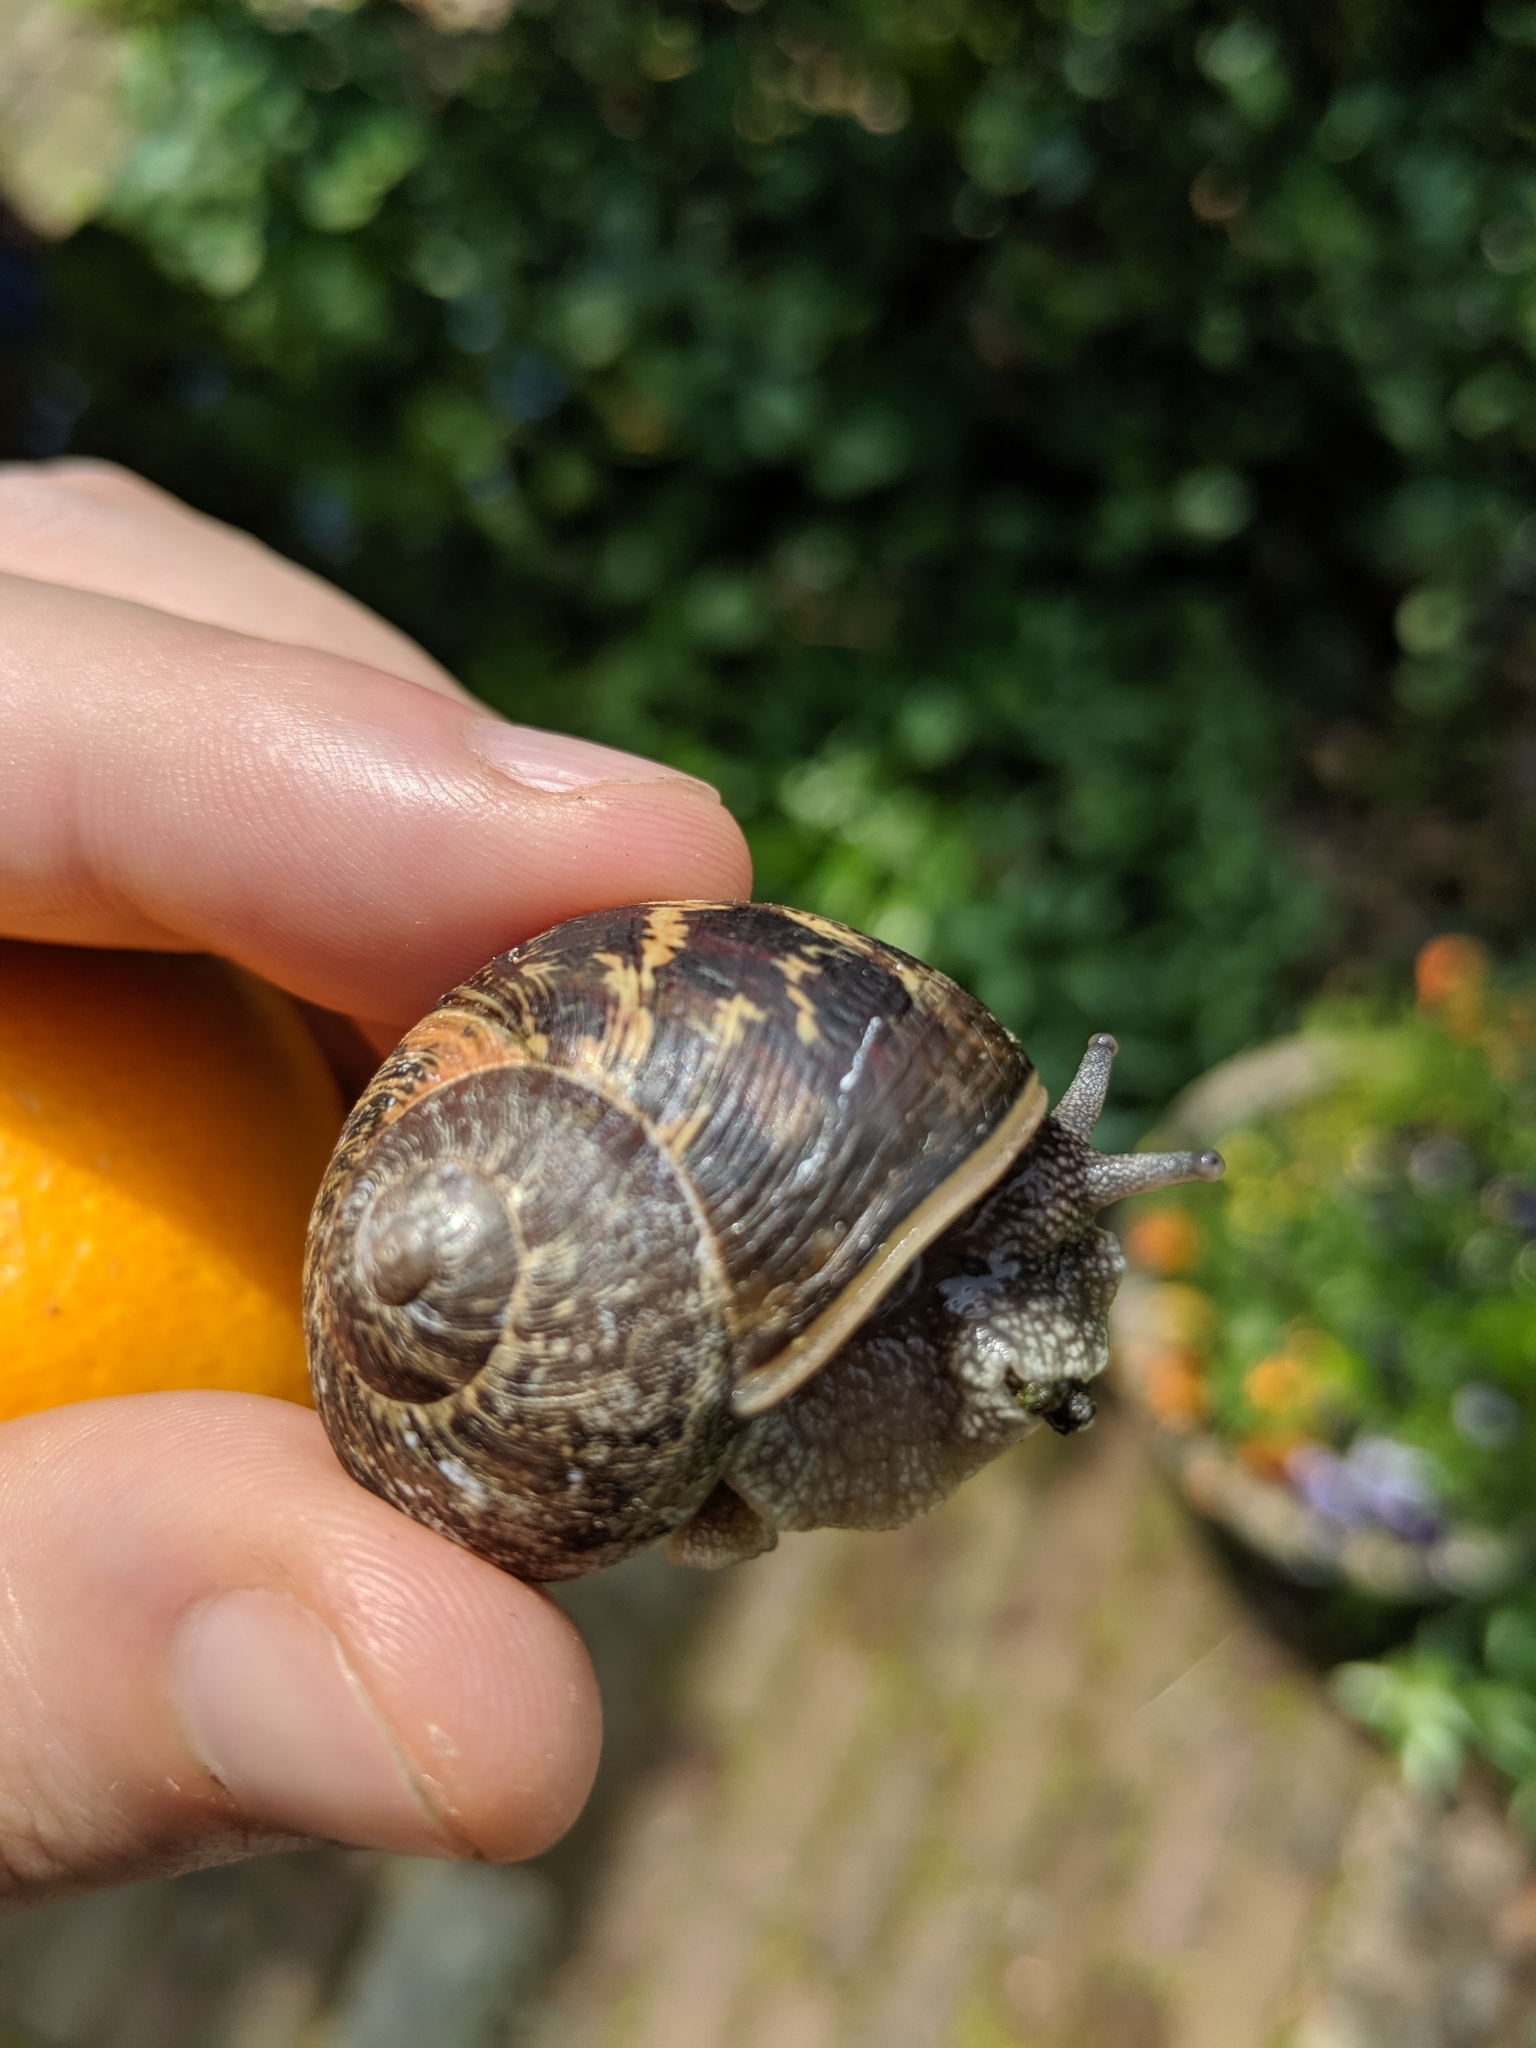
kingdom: Animalia
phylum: Mollusca
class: Gastropoda
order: Stylommatophora
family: Helicidae
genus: Cornu
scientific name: Cornu aspersum
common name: Brown garden snail
